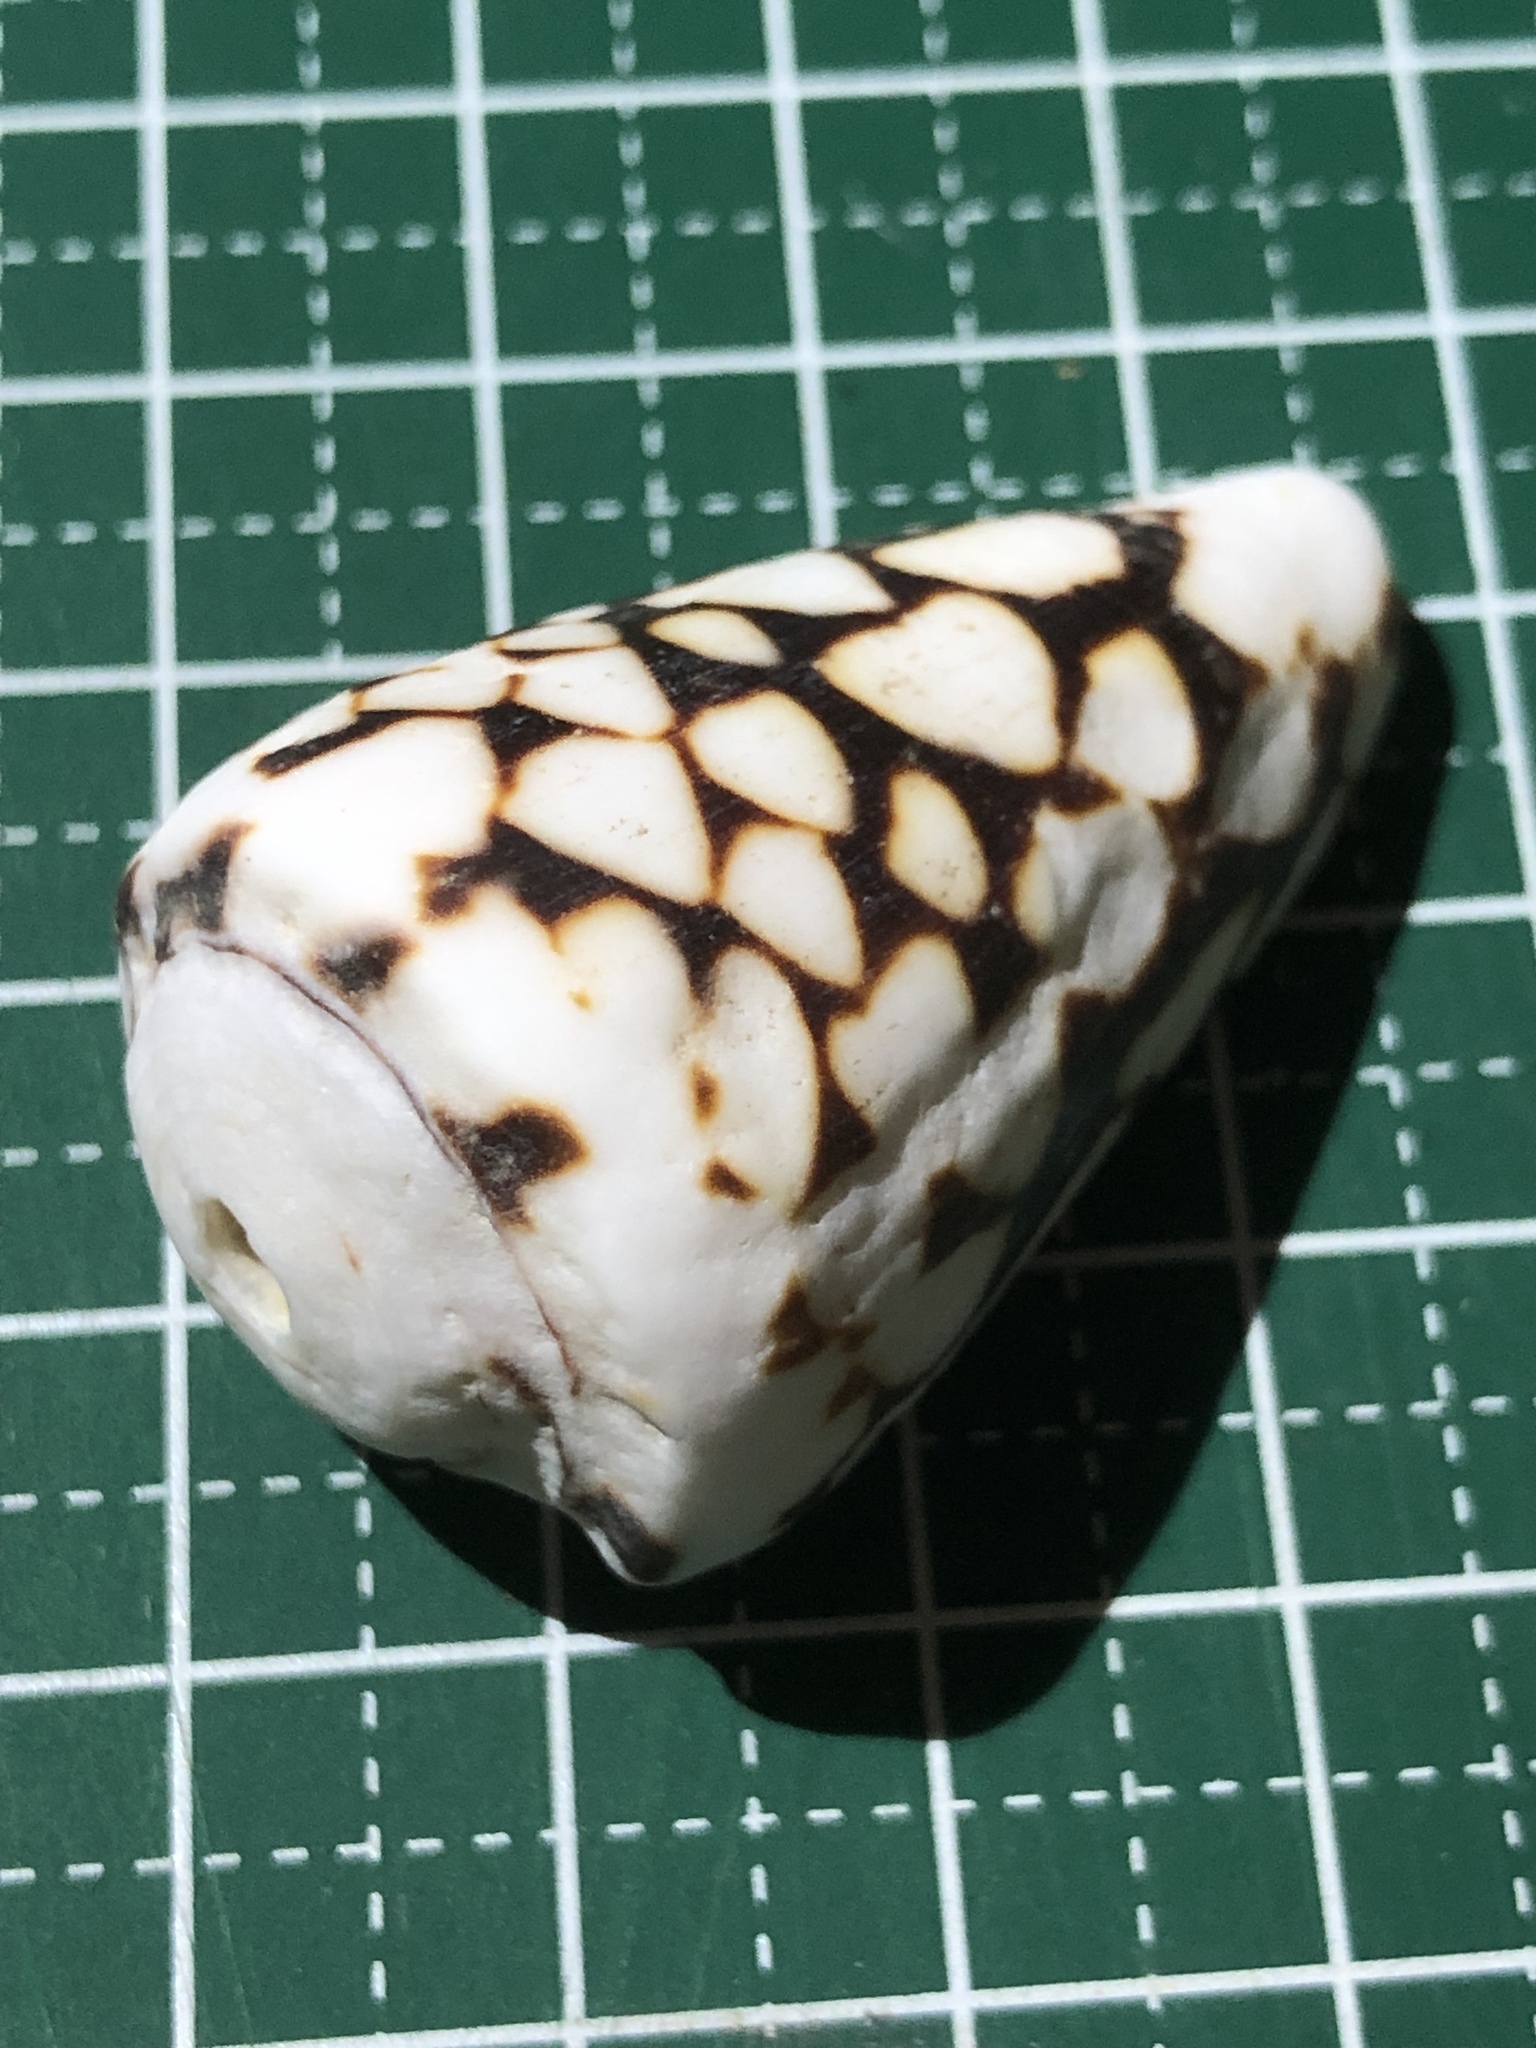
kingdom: Animalia
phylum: Mollusca
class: Gastropoda
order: Neogastropoda
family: Conidae
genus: Conus
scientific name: Conus bandanus
